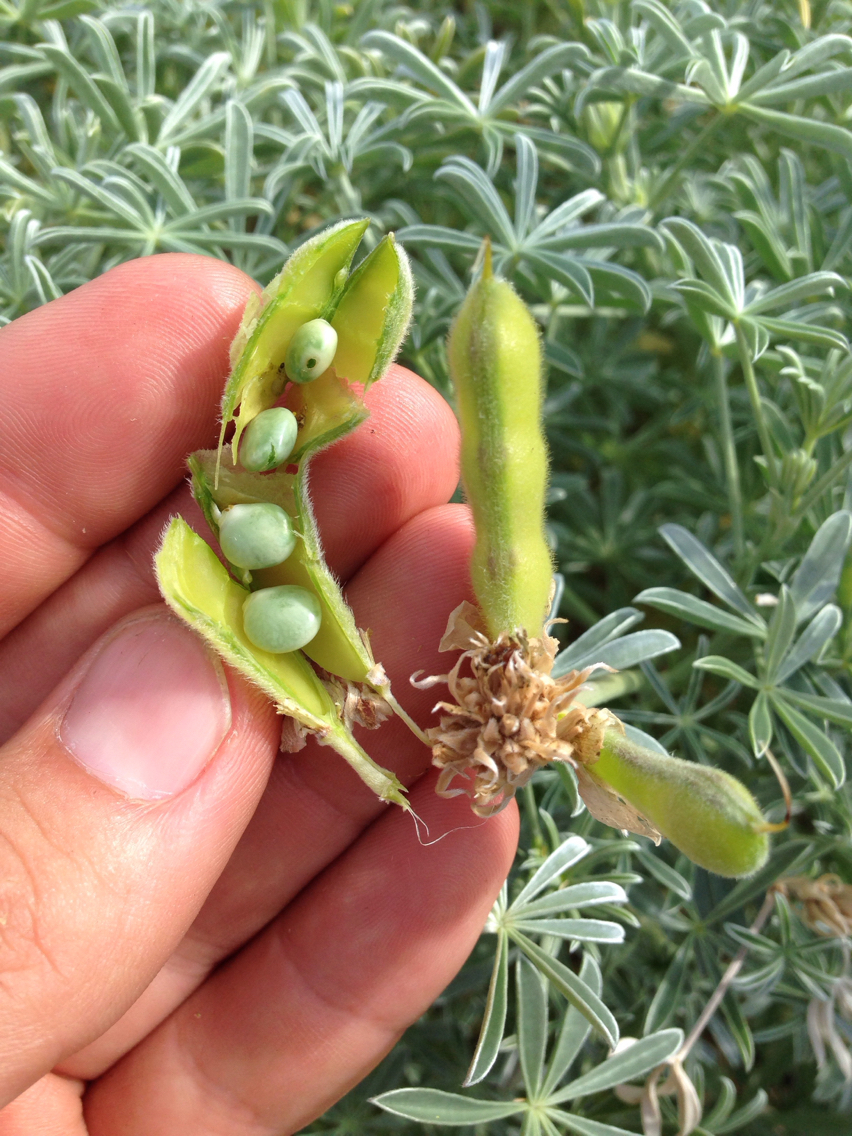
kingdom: Plantae
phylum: Tracheophyta
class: Magnoliopsida
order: Fabales
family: Fabaceae
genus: Lupinus
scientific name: Lupinus albifrons
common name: Foothill lupine
